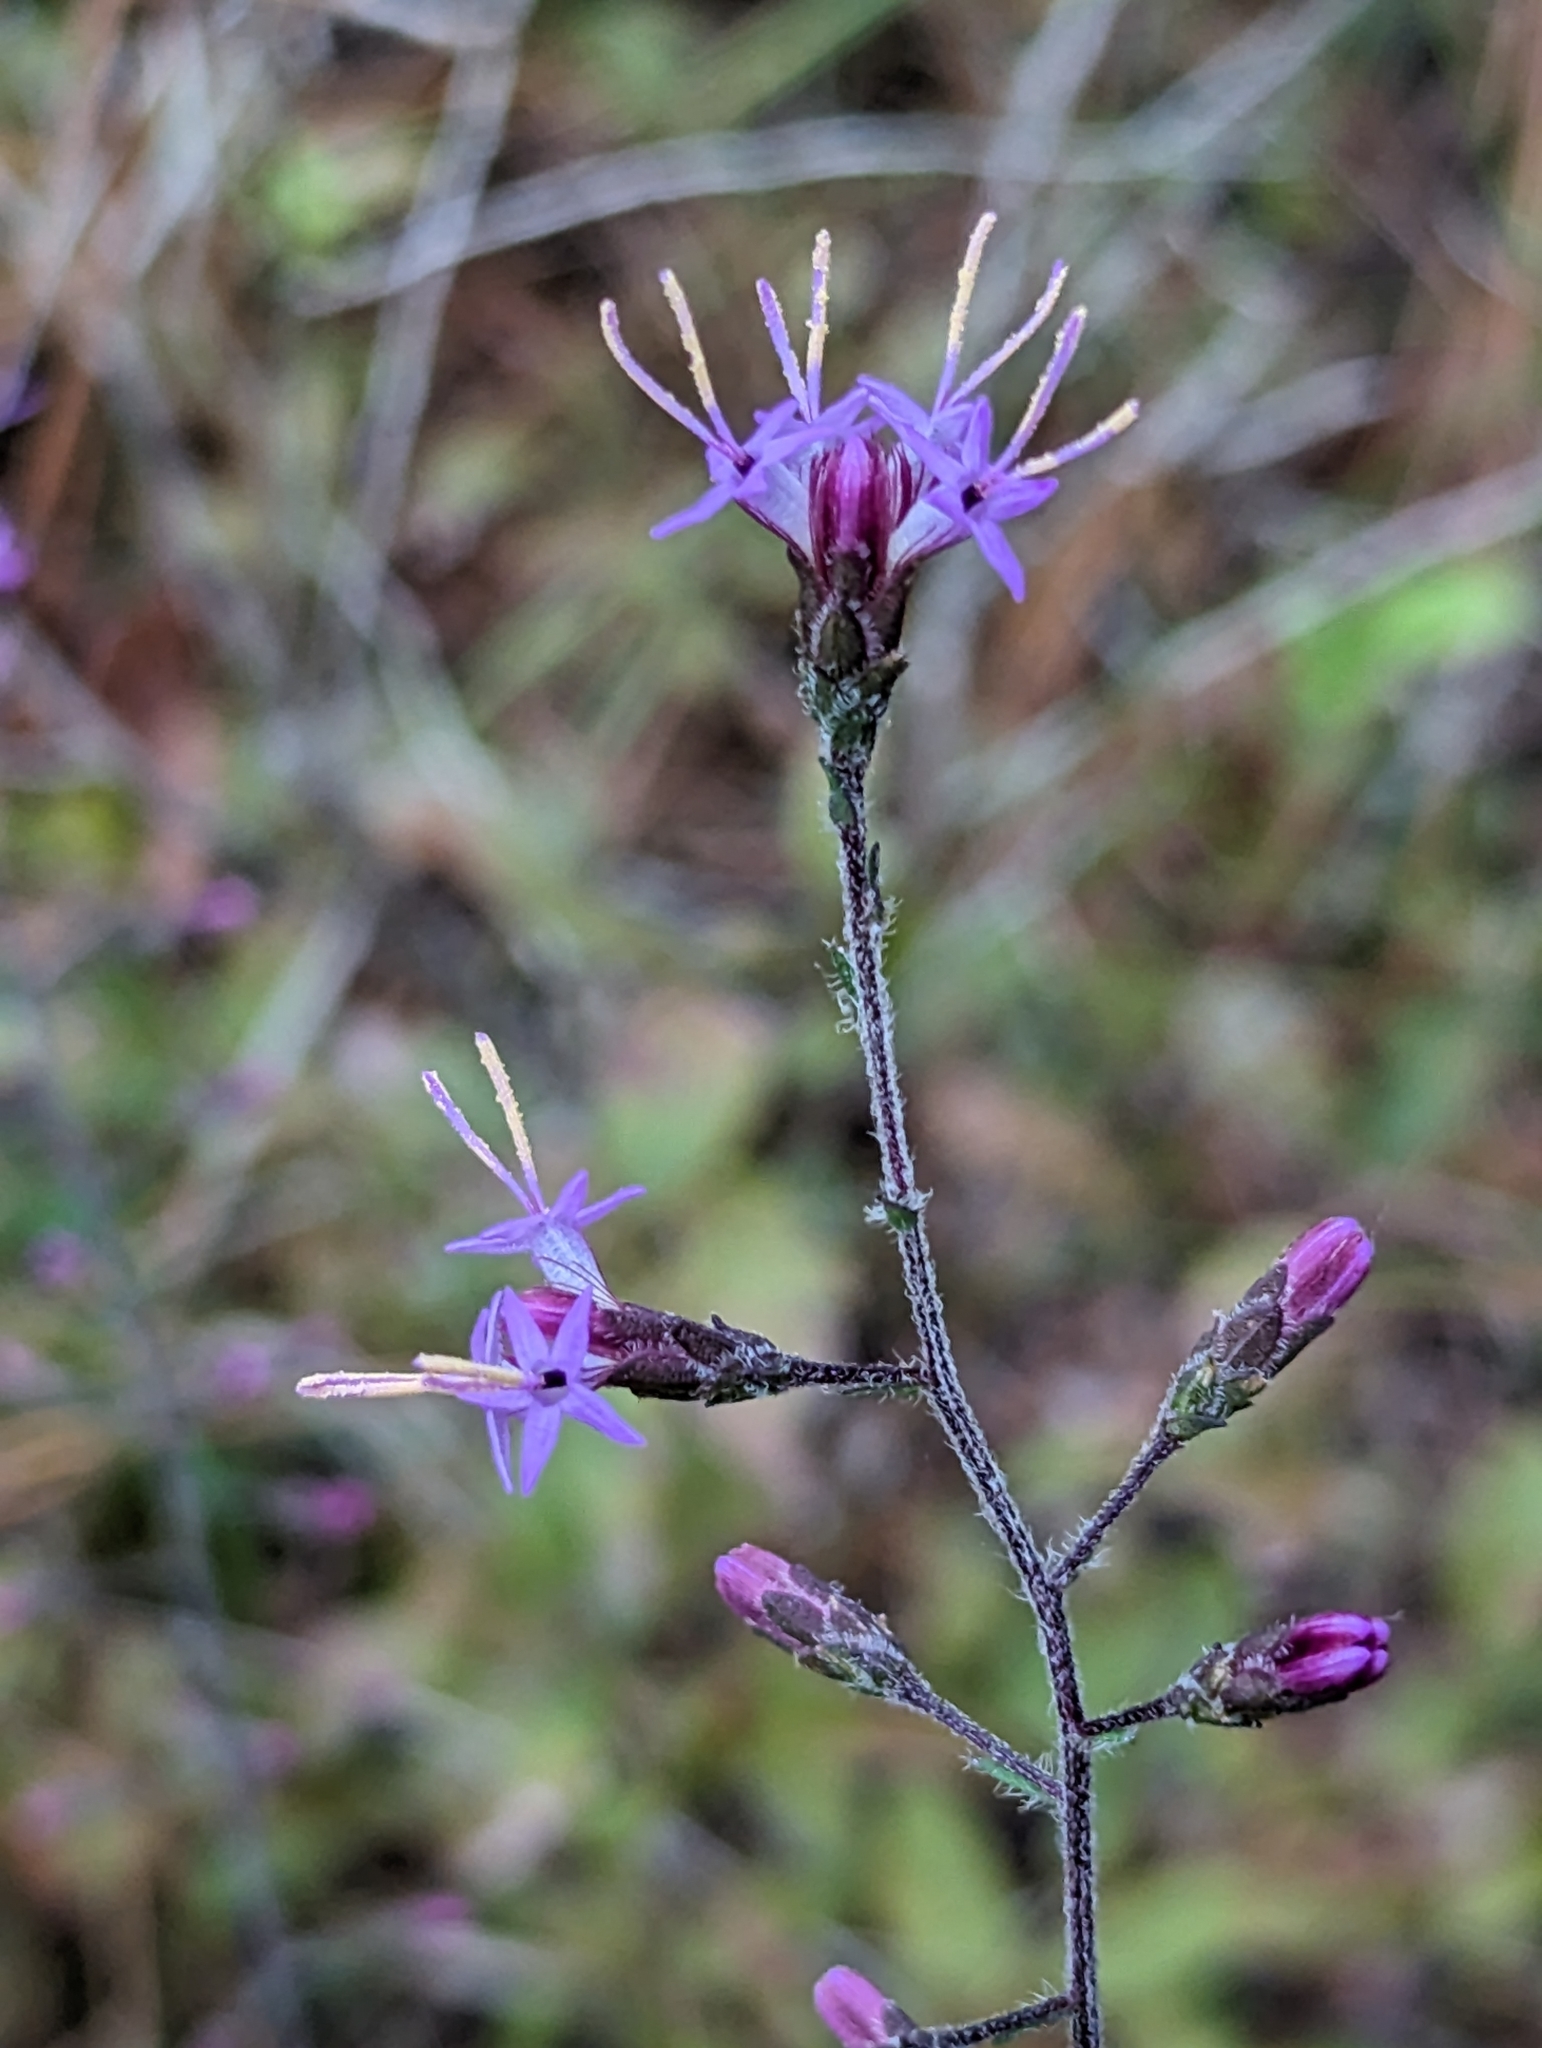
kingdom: Plantae
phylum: Tracheophyta
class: Magnoliopsida
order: Asterales
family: Asteraceae
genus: Liatris
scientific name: Liatris gracilis
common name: Slender gayfeather
